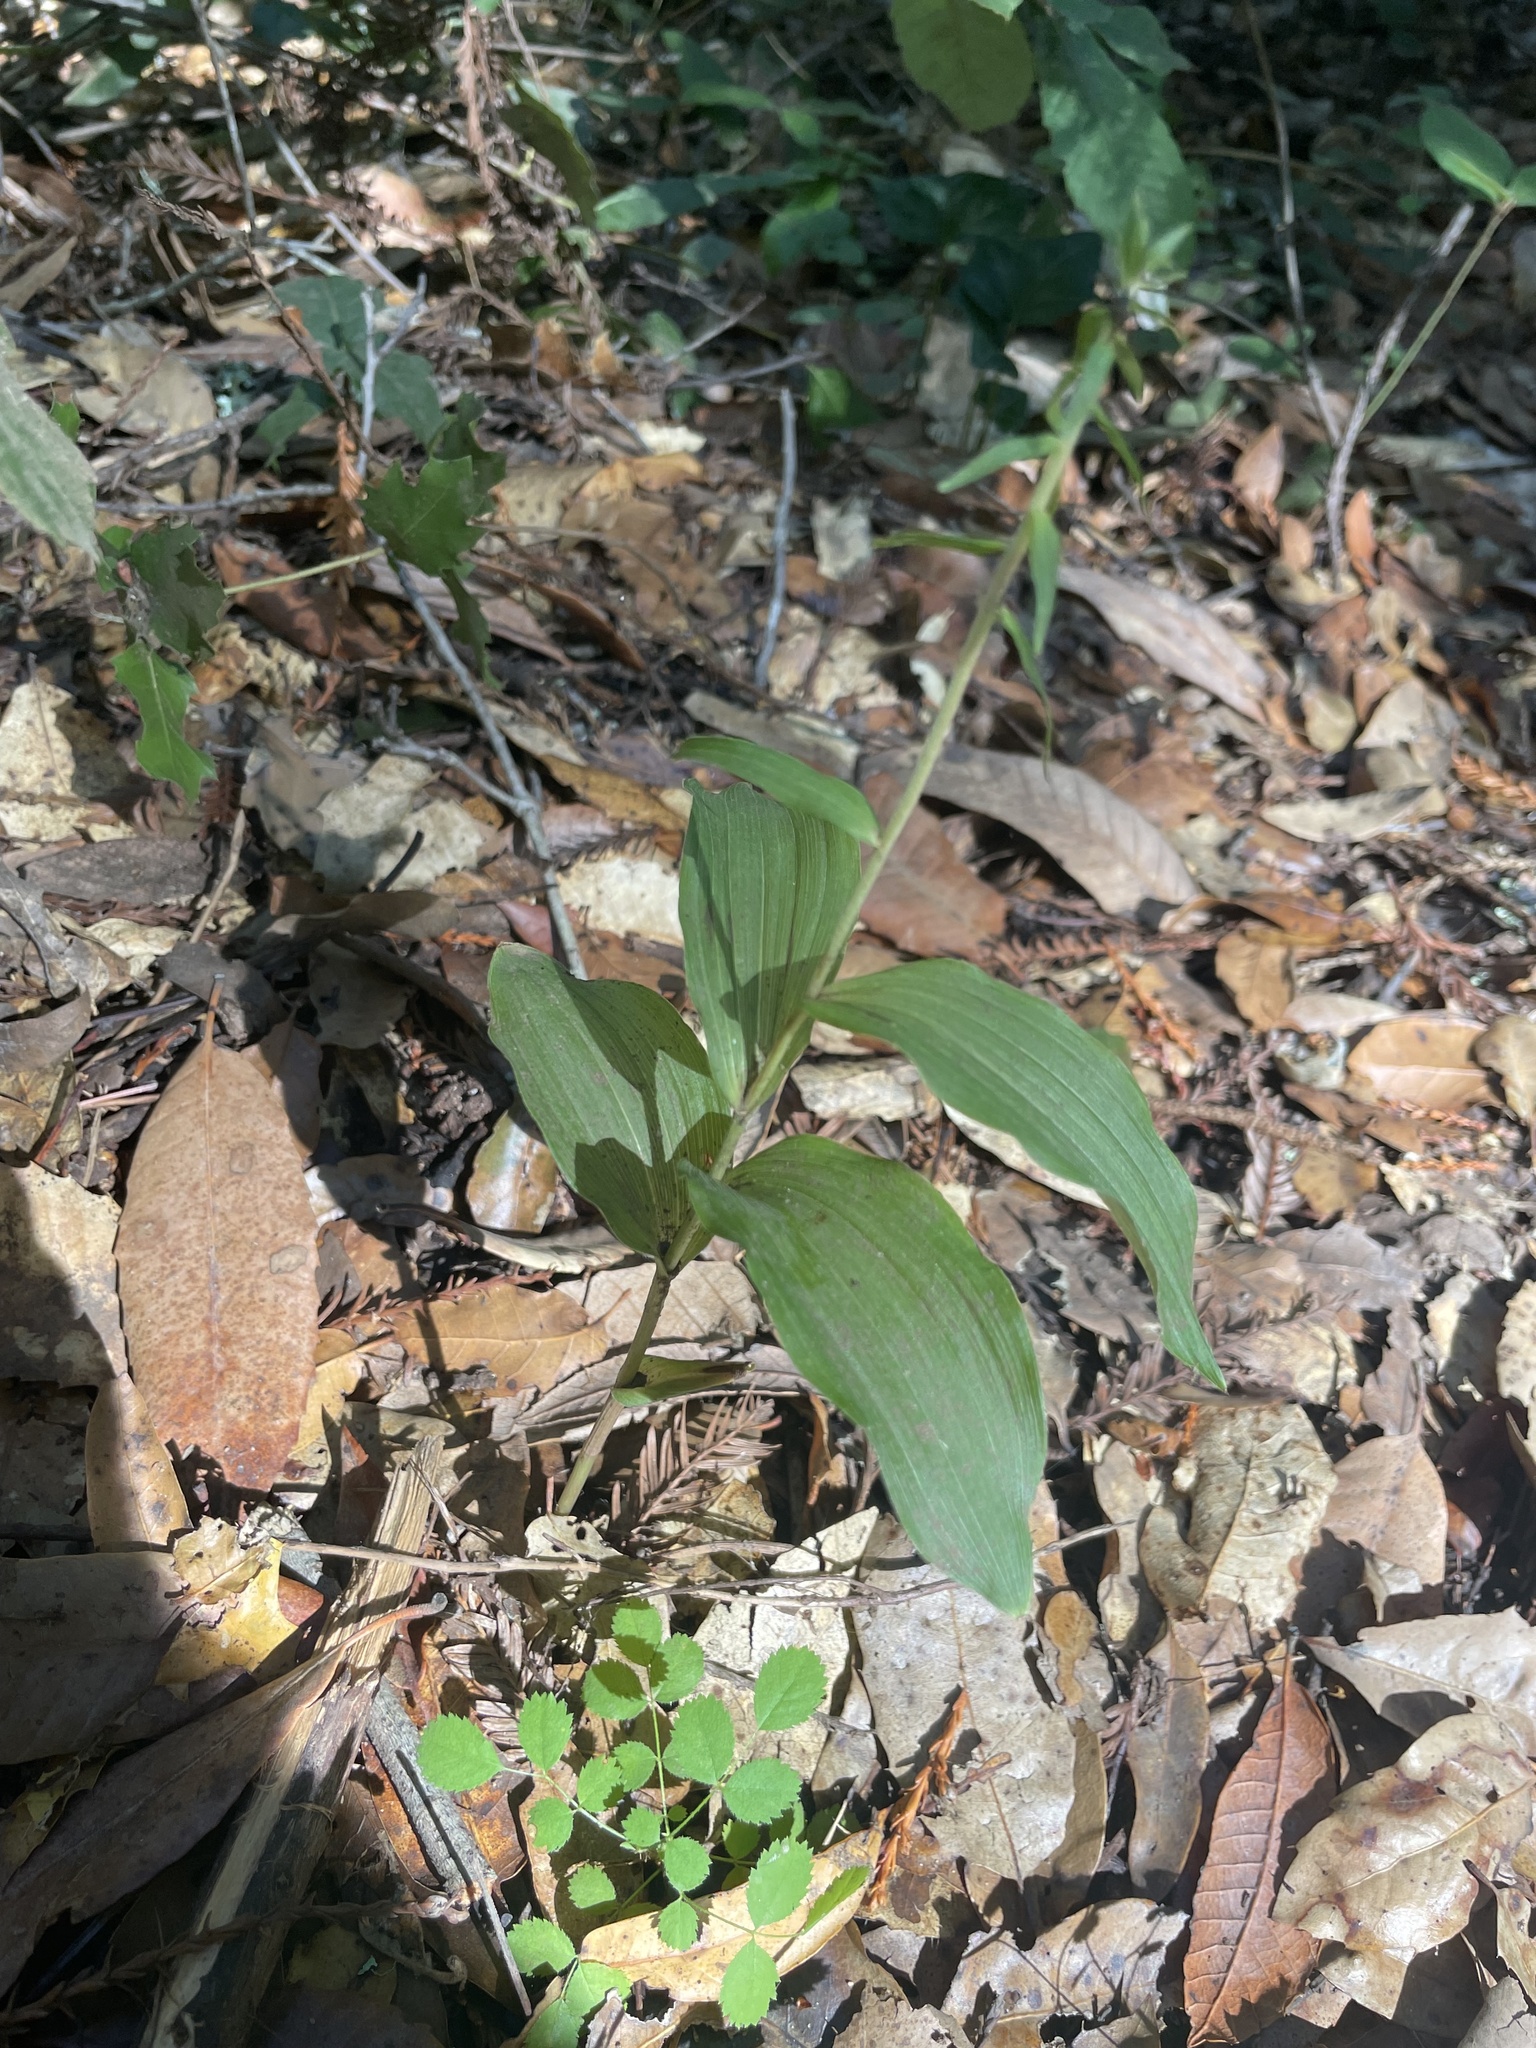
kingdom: Plantae
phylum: Tracheophyta
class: Liliopsida
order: Asparagales
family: Orchidaceae
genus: Epipactis
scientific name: Epipactis helleborine
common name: Broad-leaved helleborine
